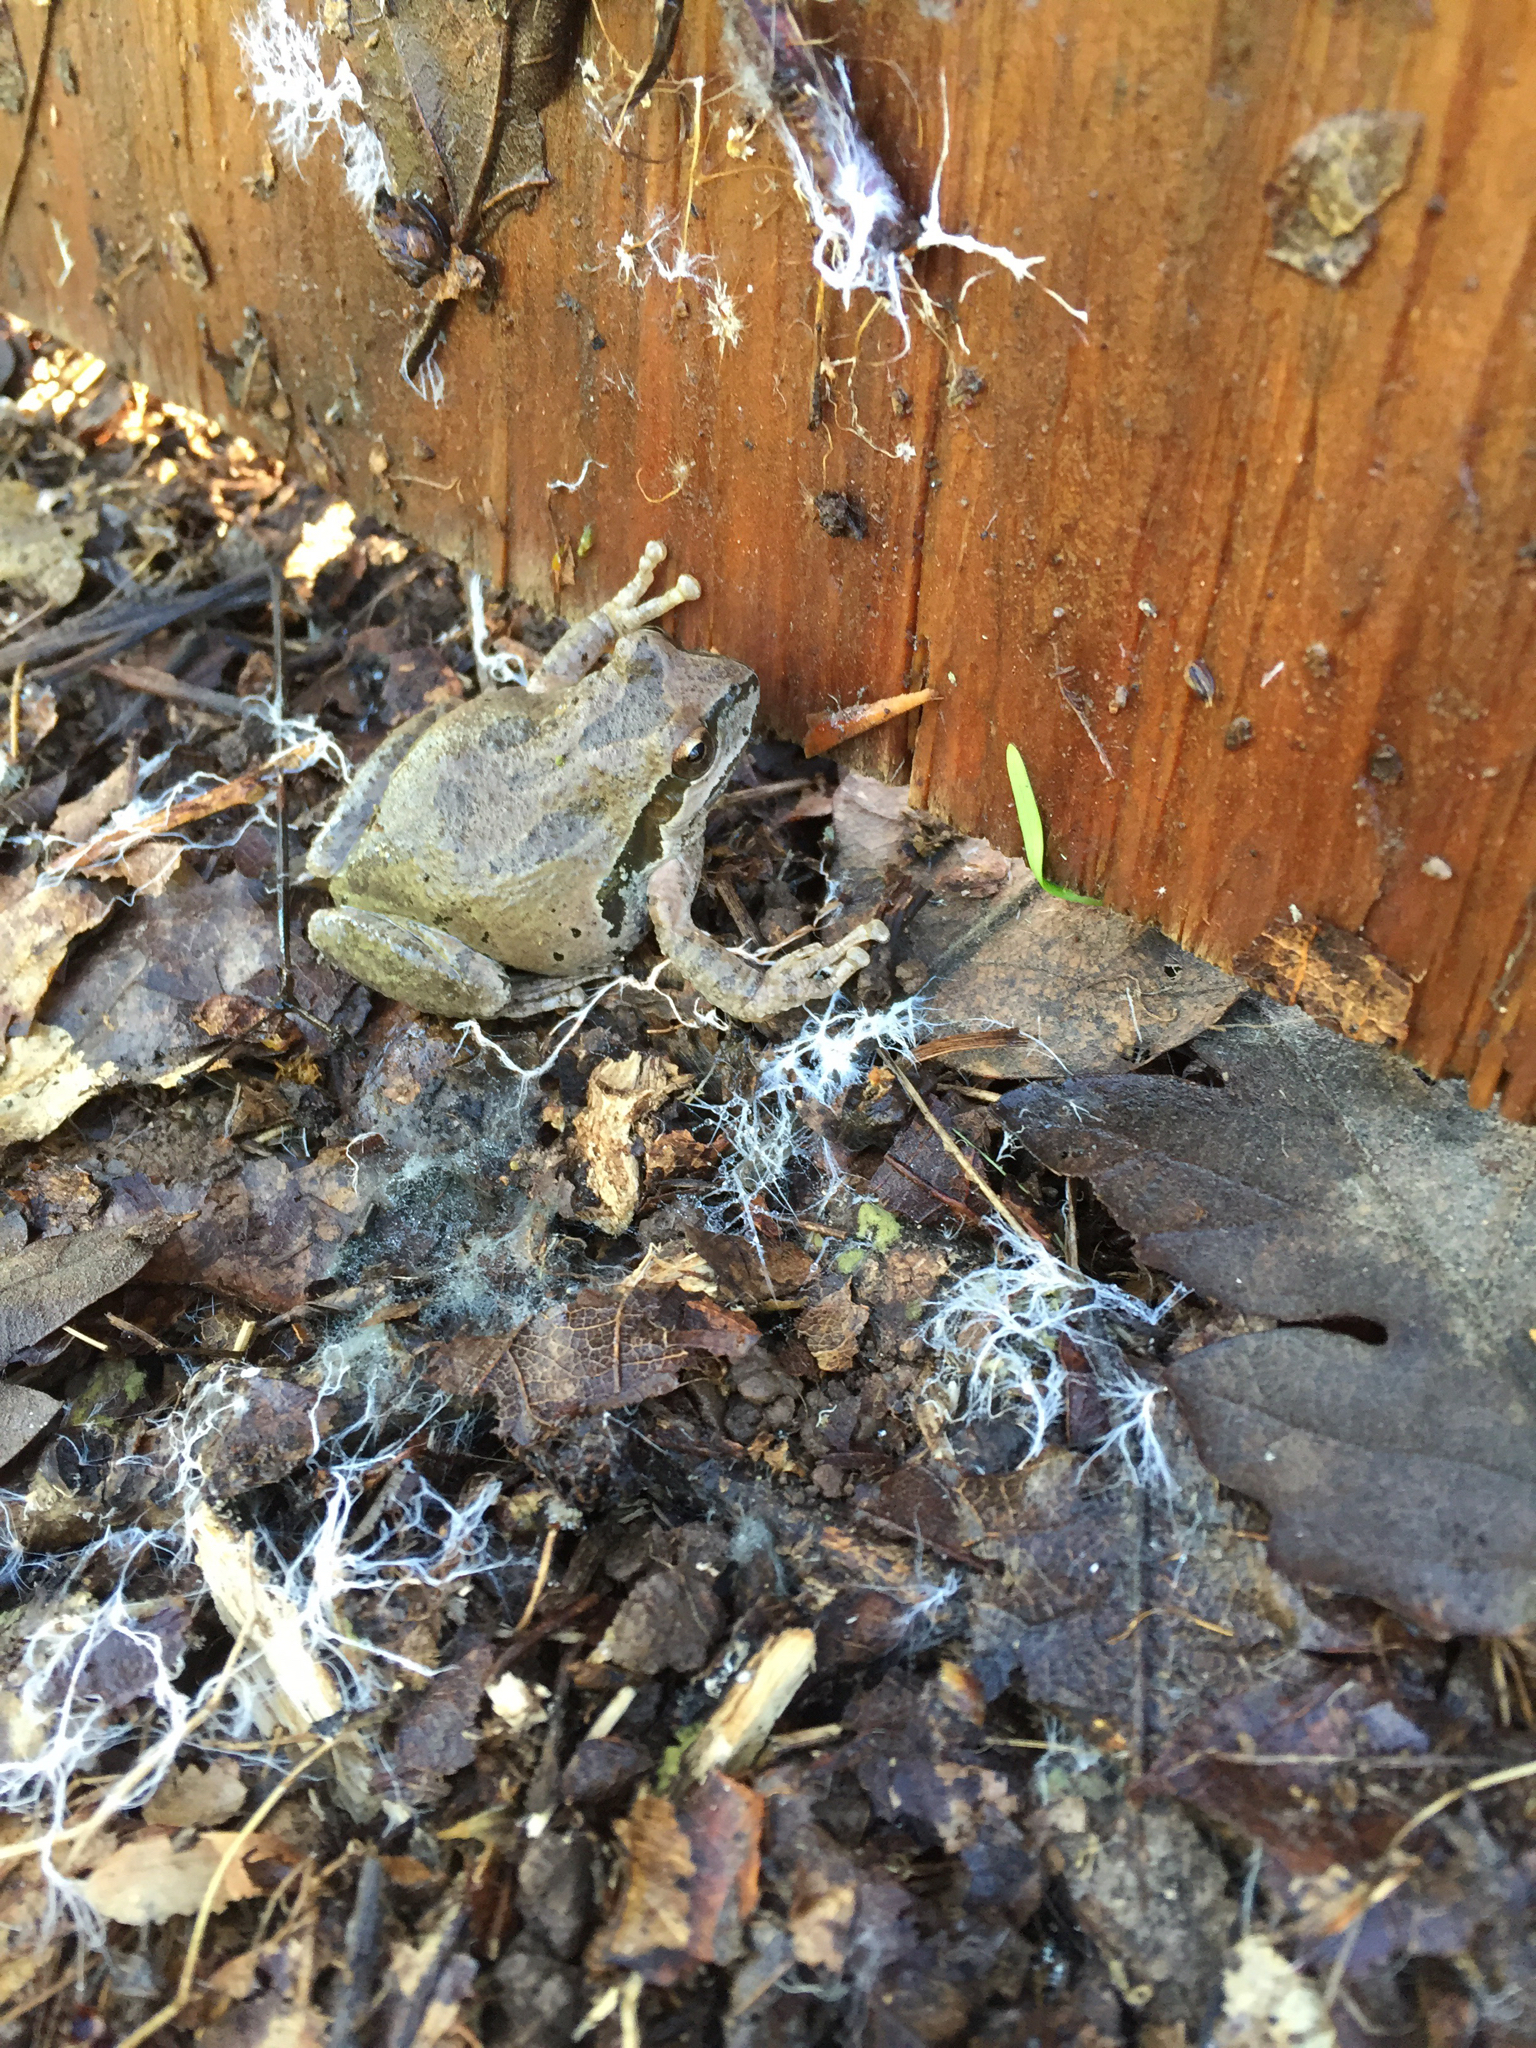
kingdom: Animalia
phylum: Chordata
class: Amphibia
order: Anura
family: Hylidae
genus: Pseudacris
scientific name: Pseudacris regilla
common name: Pacific chorus frog
